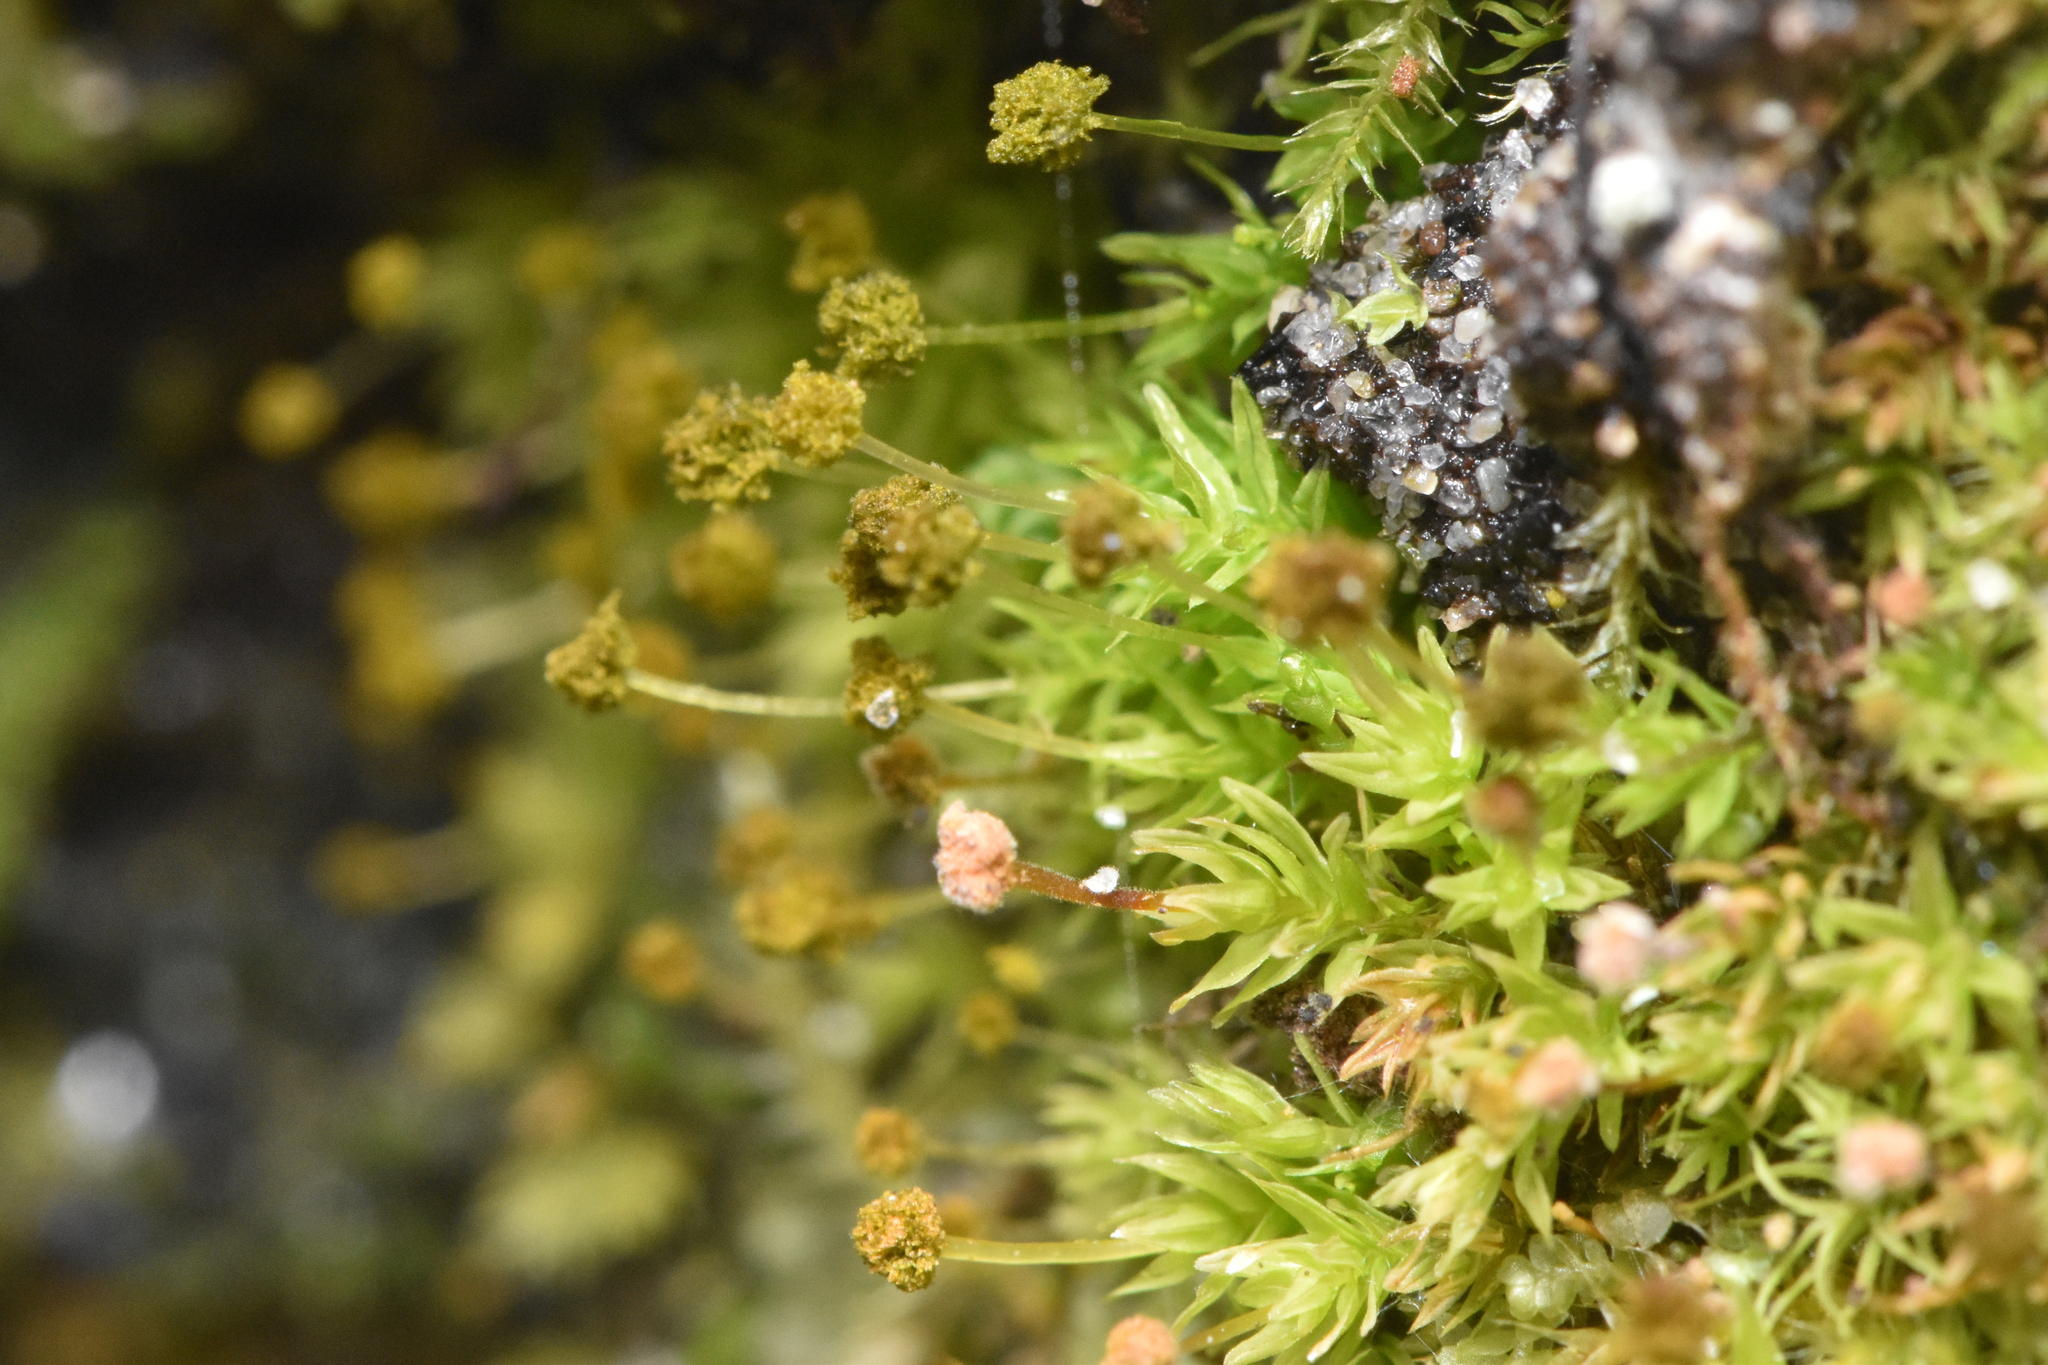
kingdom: Plantae
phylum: Bryophyta
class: Bryopsida
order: Aulacomniales
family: Aulacomniaceae
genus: Aulacomnium
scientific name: Aulacomnium androgynum
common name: Little groove moss
